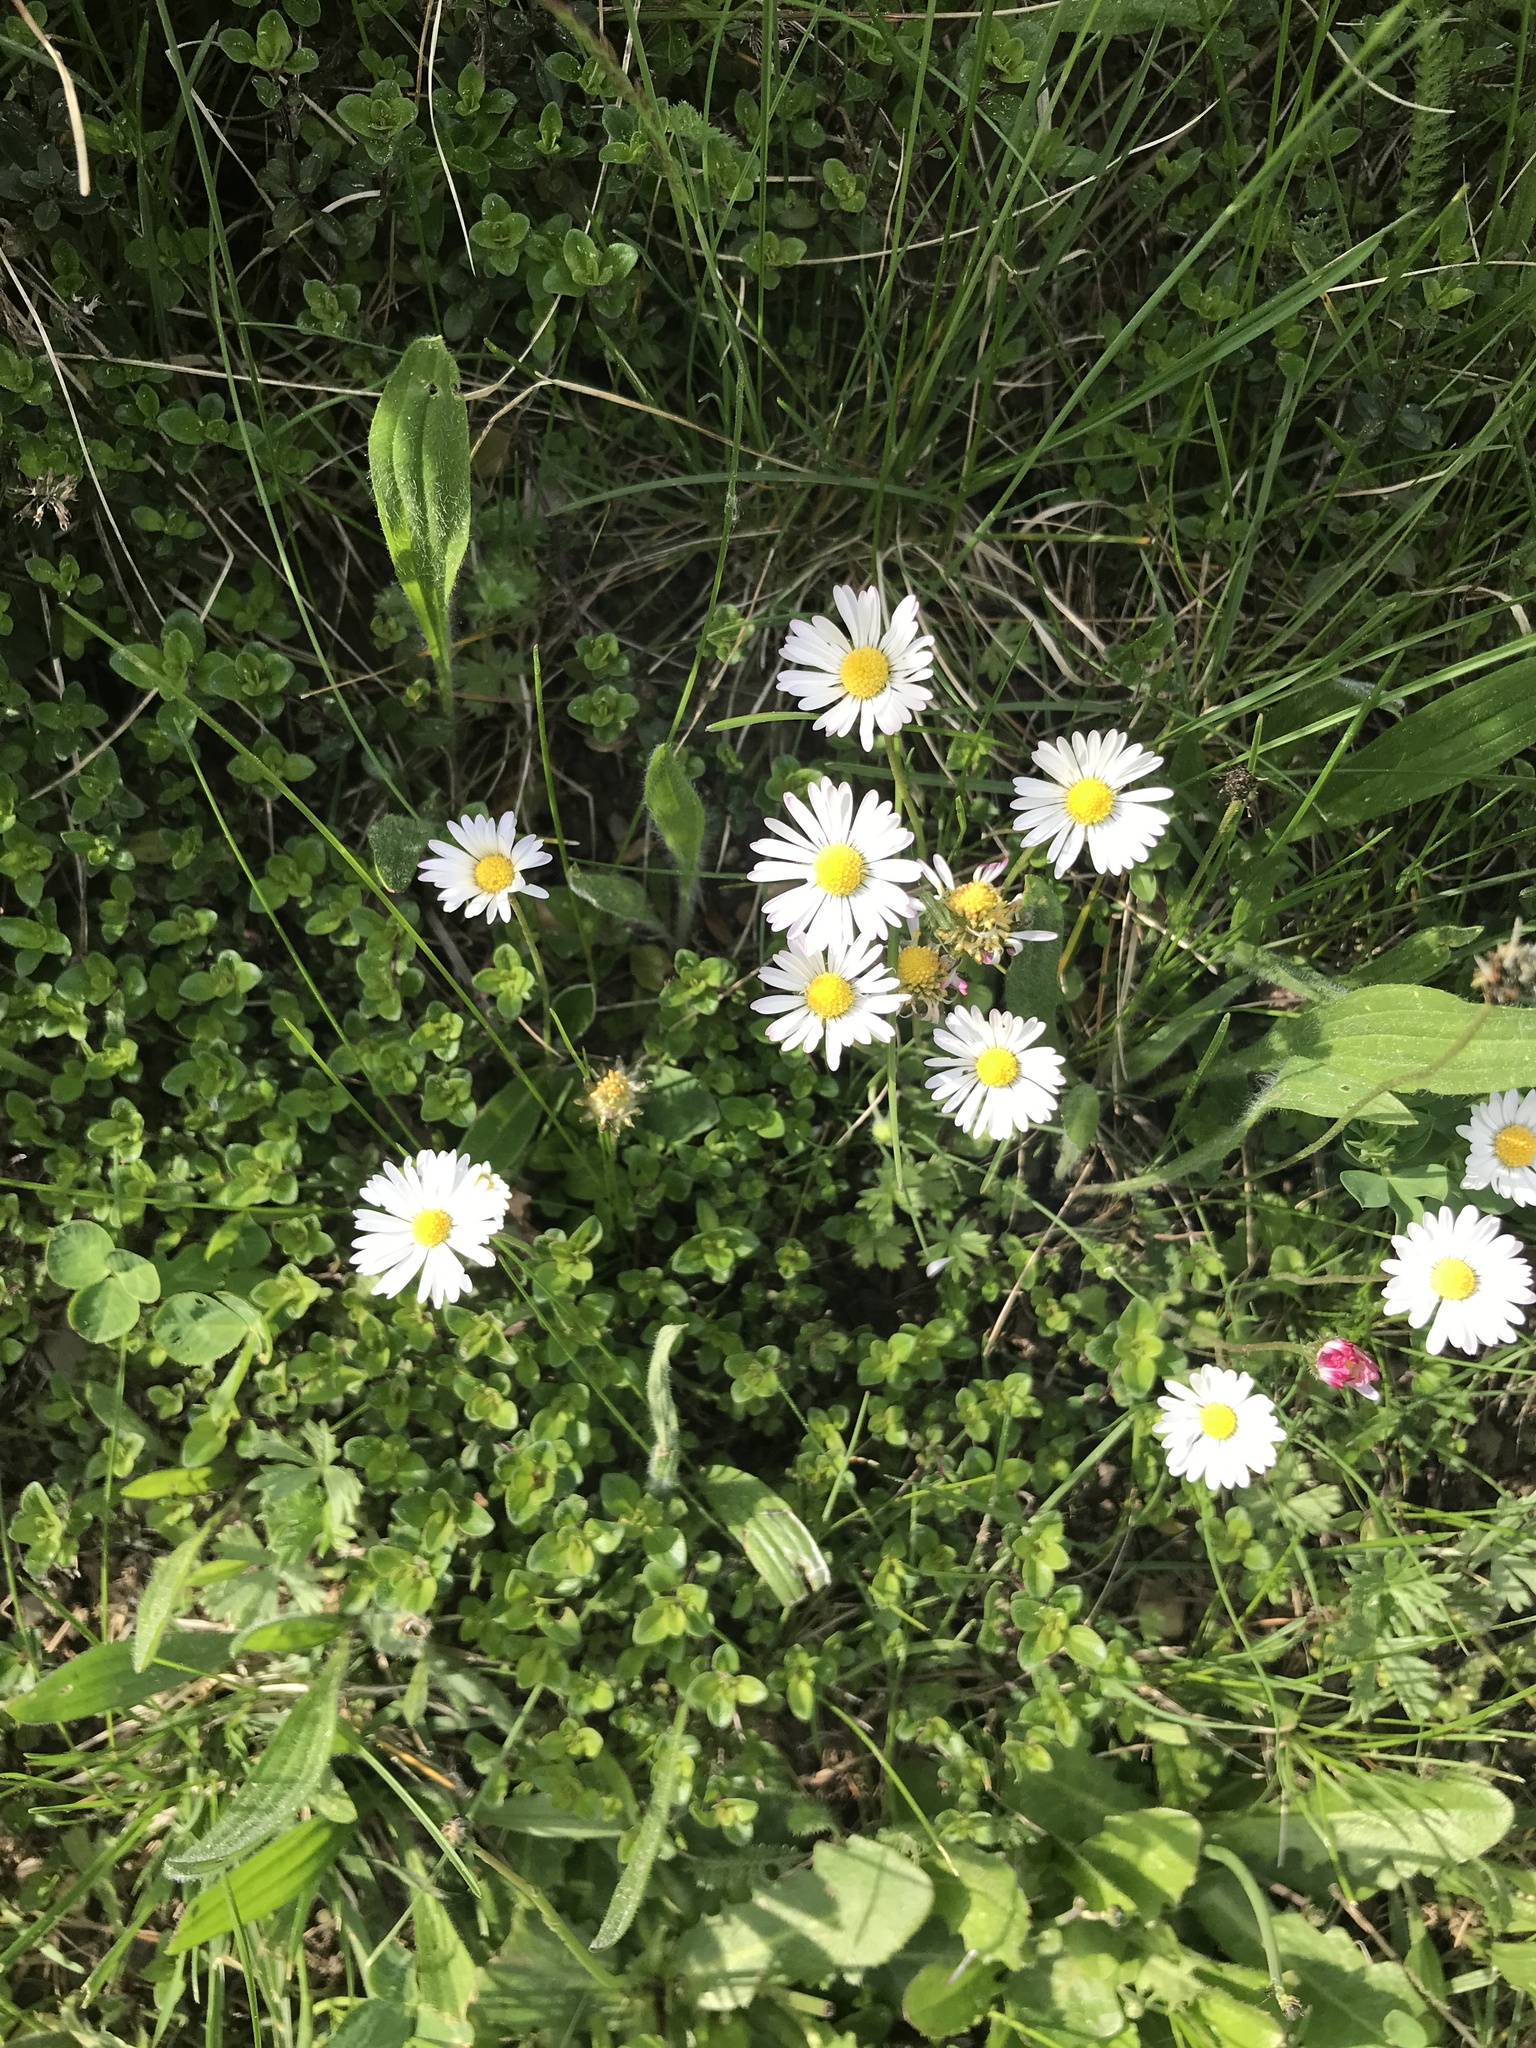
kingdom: Plantae
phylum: Tracheophyta
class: Magnoliopsida
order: Asterales
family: Asteraceae
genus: Bellis
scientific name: Bellis perennis
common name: Lawndaisy
